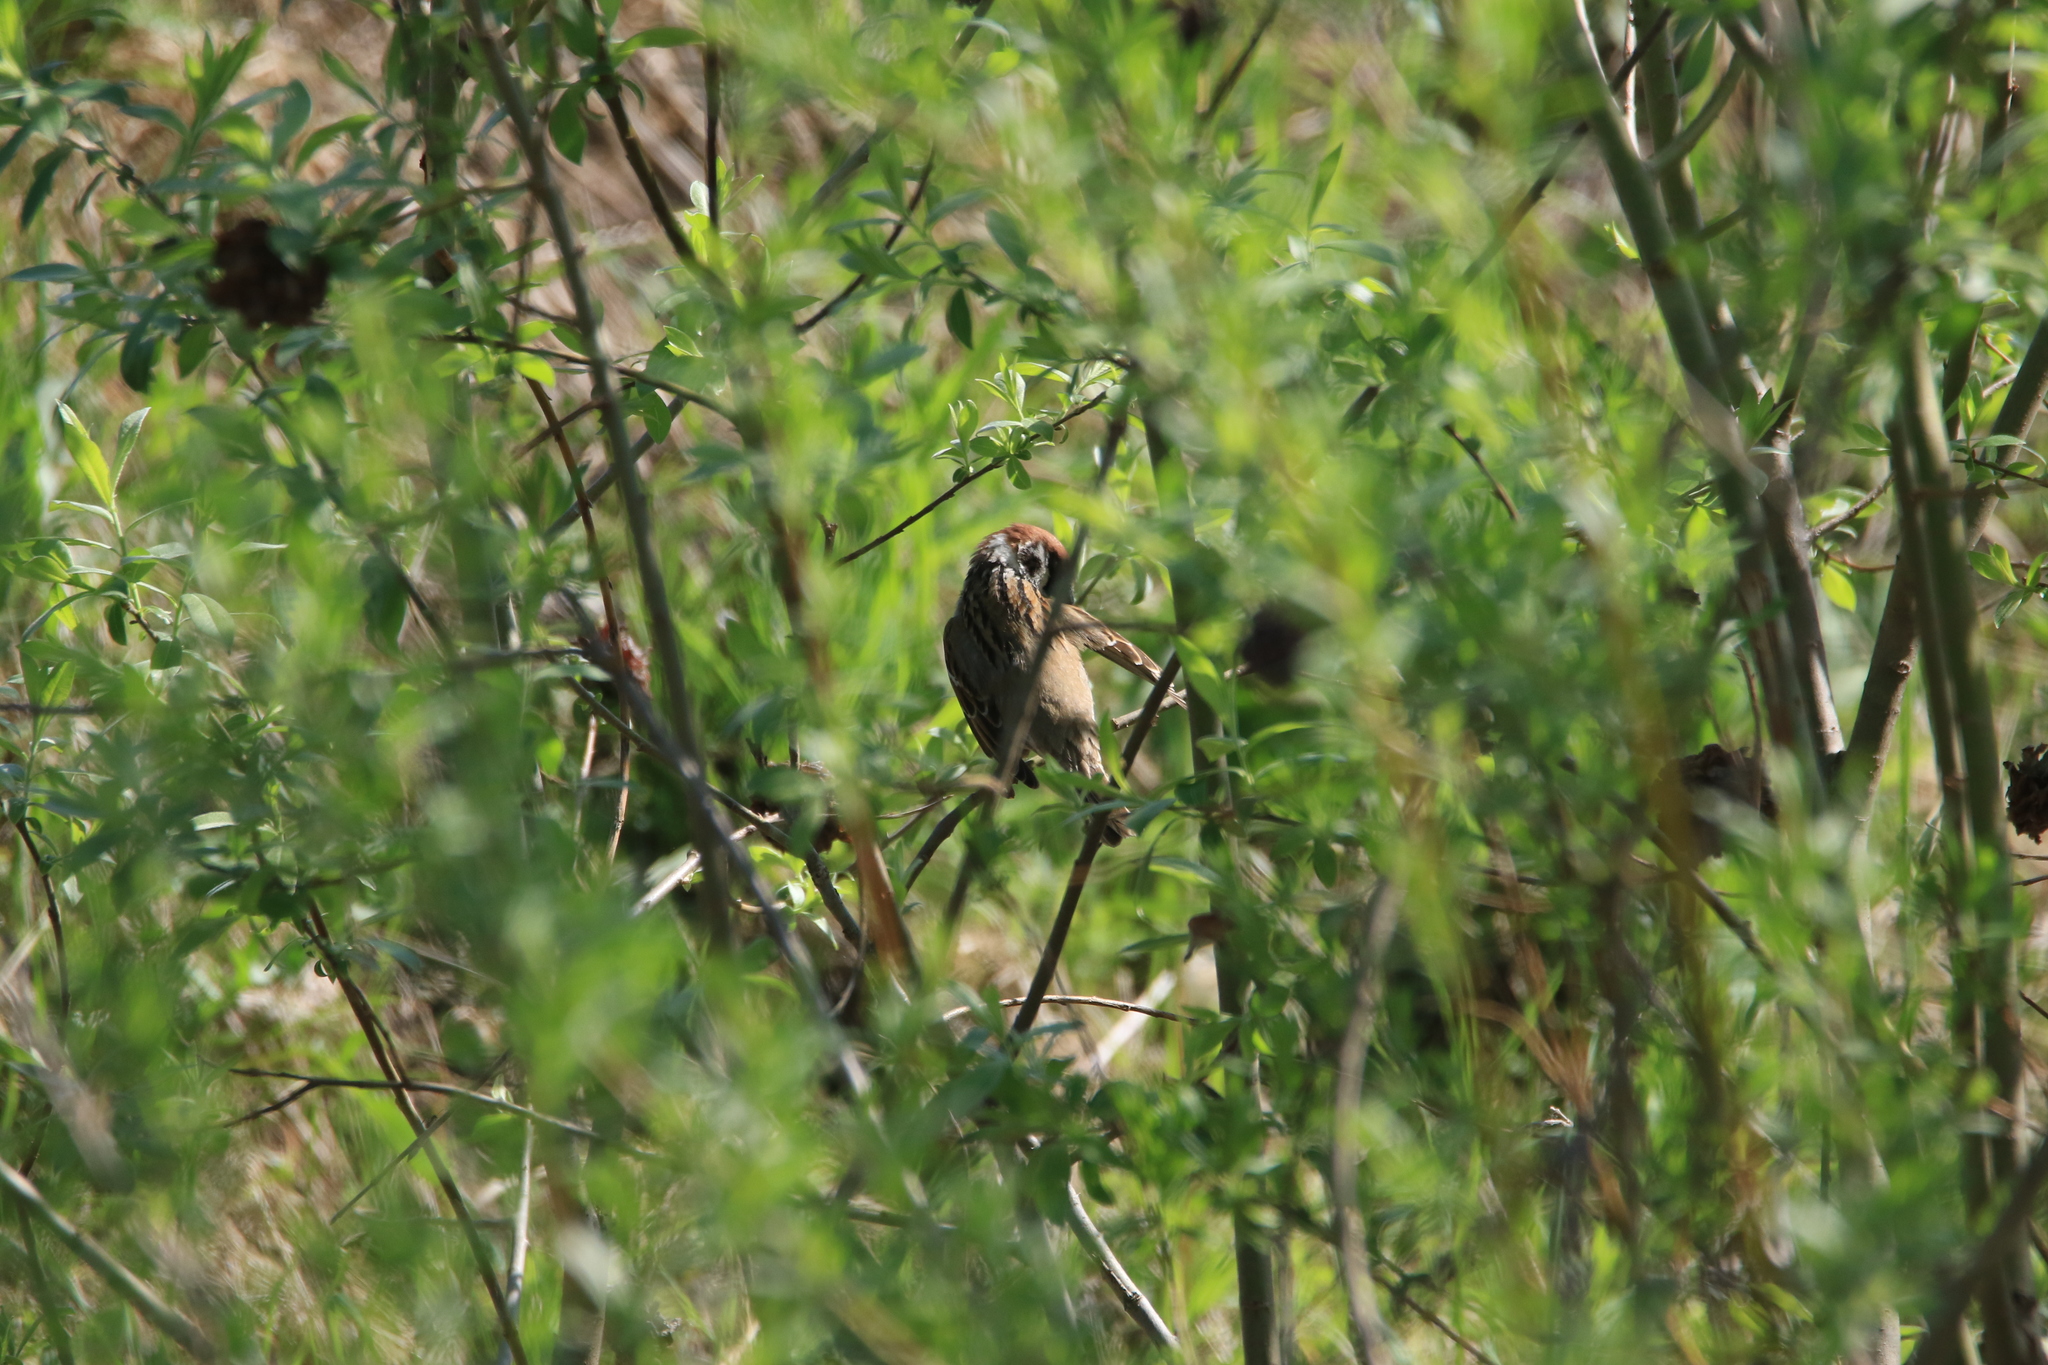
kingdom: Animalia
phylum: Chordata
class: Aves
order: Passeriformes
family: Passeridae
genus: Passer
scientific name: Passer montanus
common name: Eurasian tree sparrow
